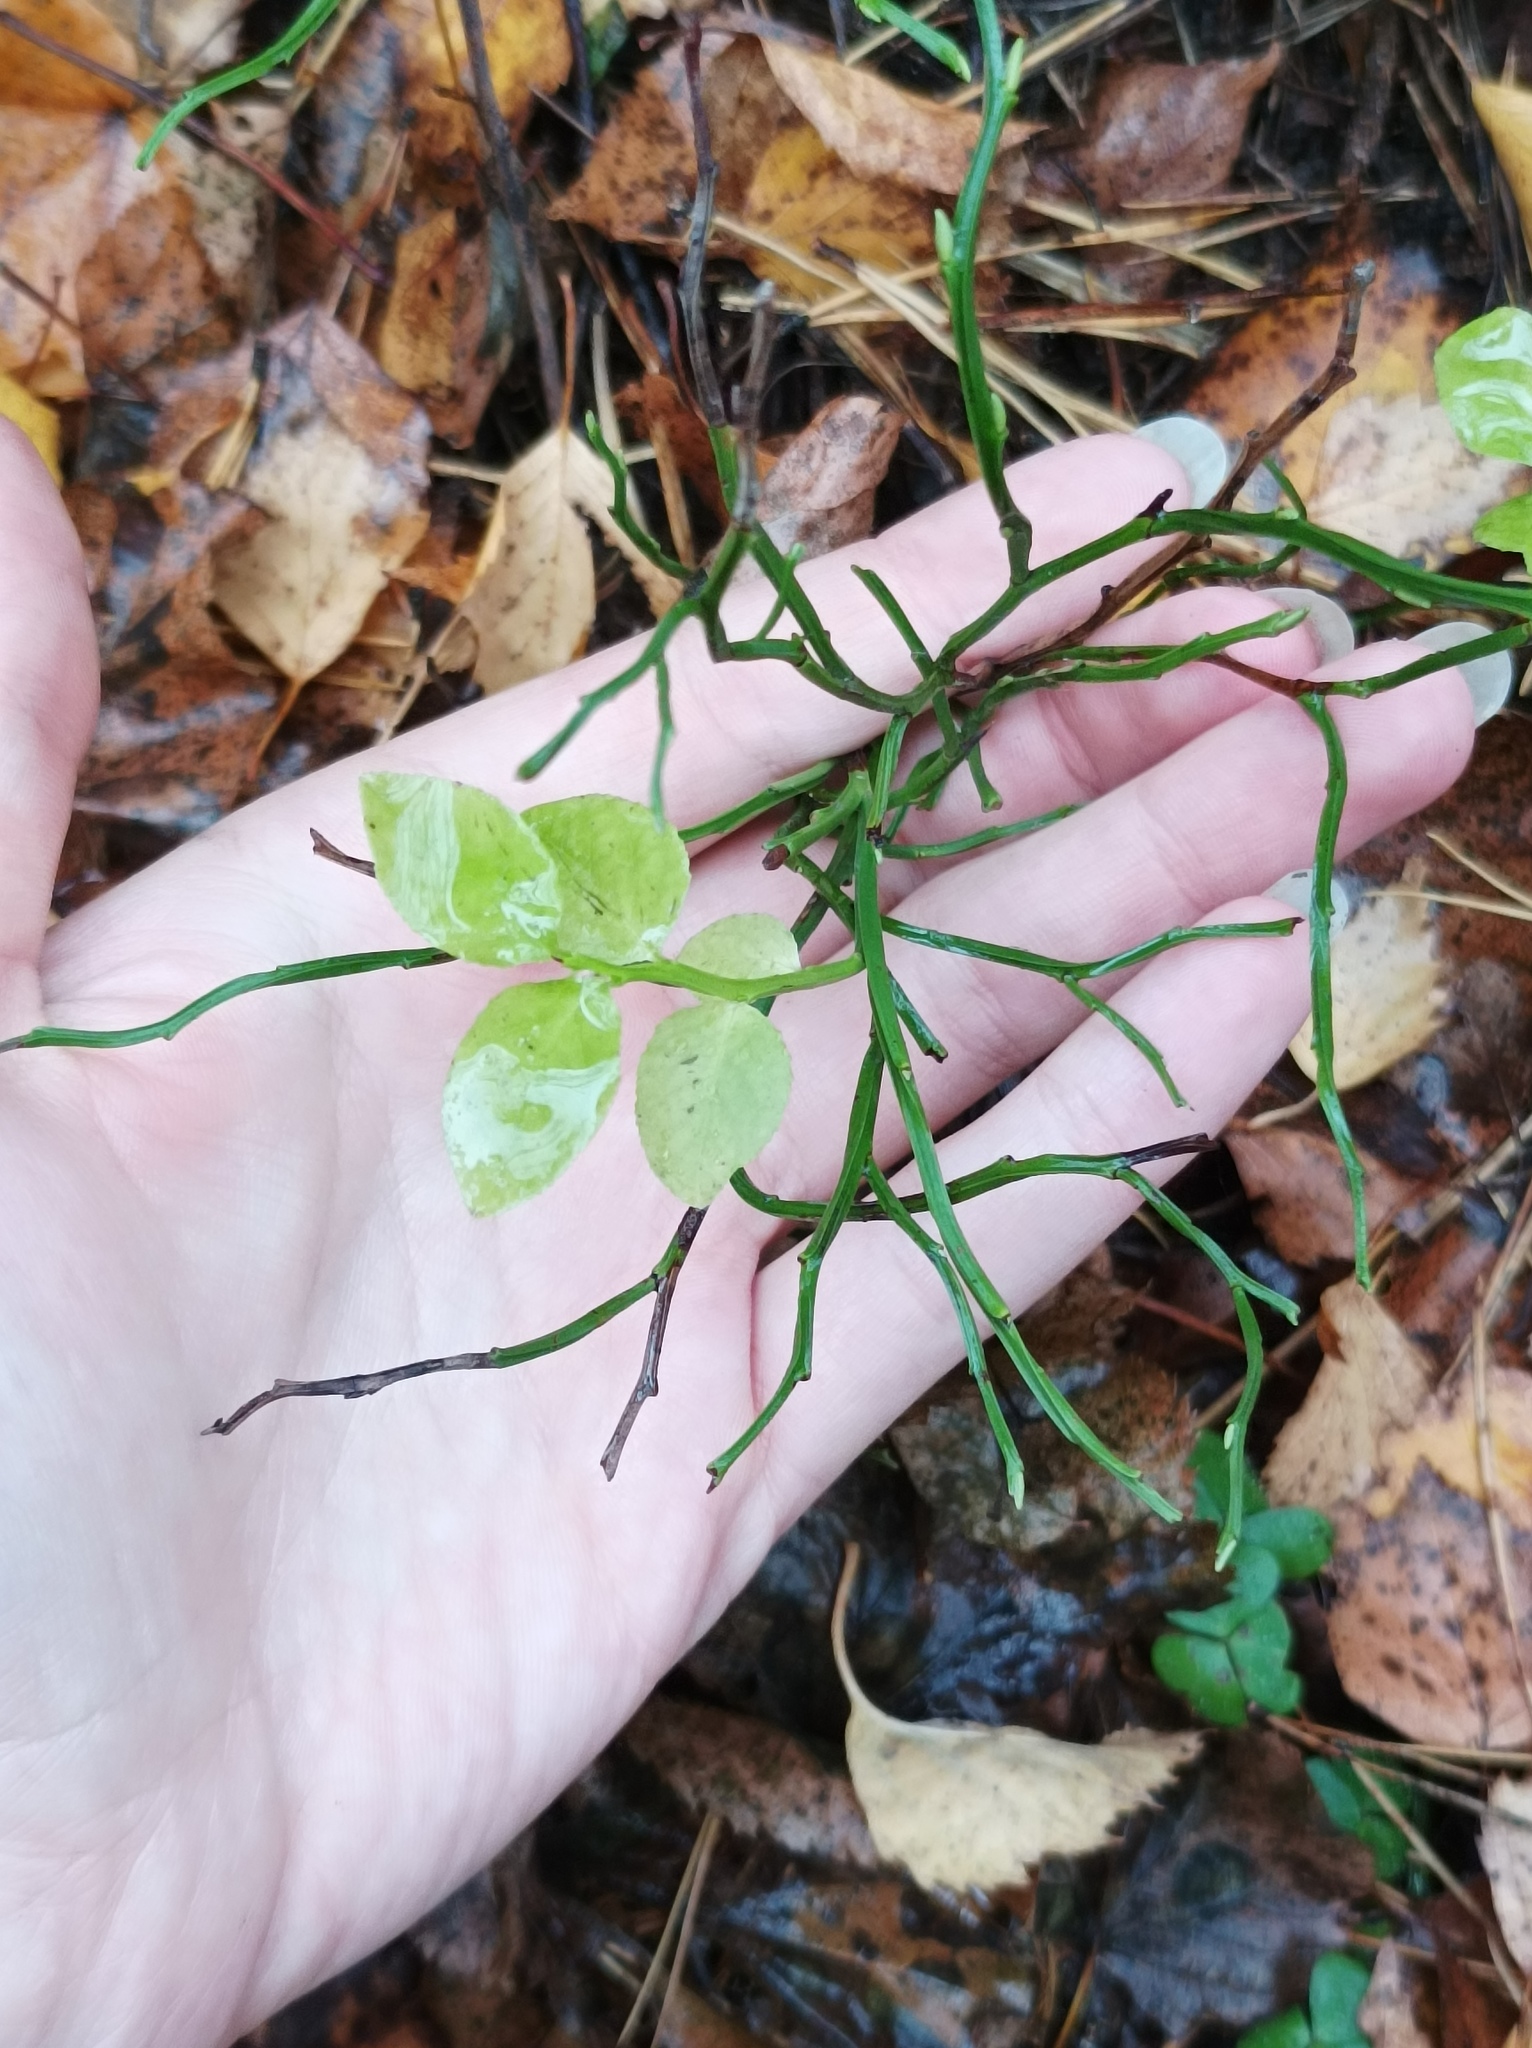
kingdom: Plantae
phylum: Tracheophyta
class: Magnoliopsida
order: Ericales
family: Ericaceae
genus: Vaccinium
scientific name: Vaccinium myrtillus
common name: Bilberry
